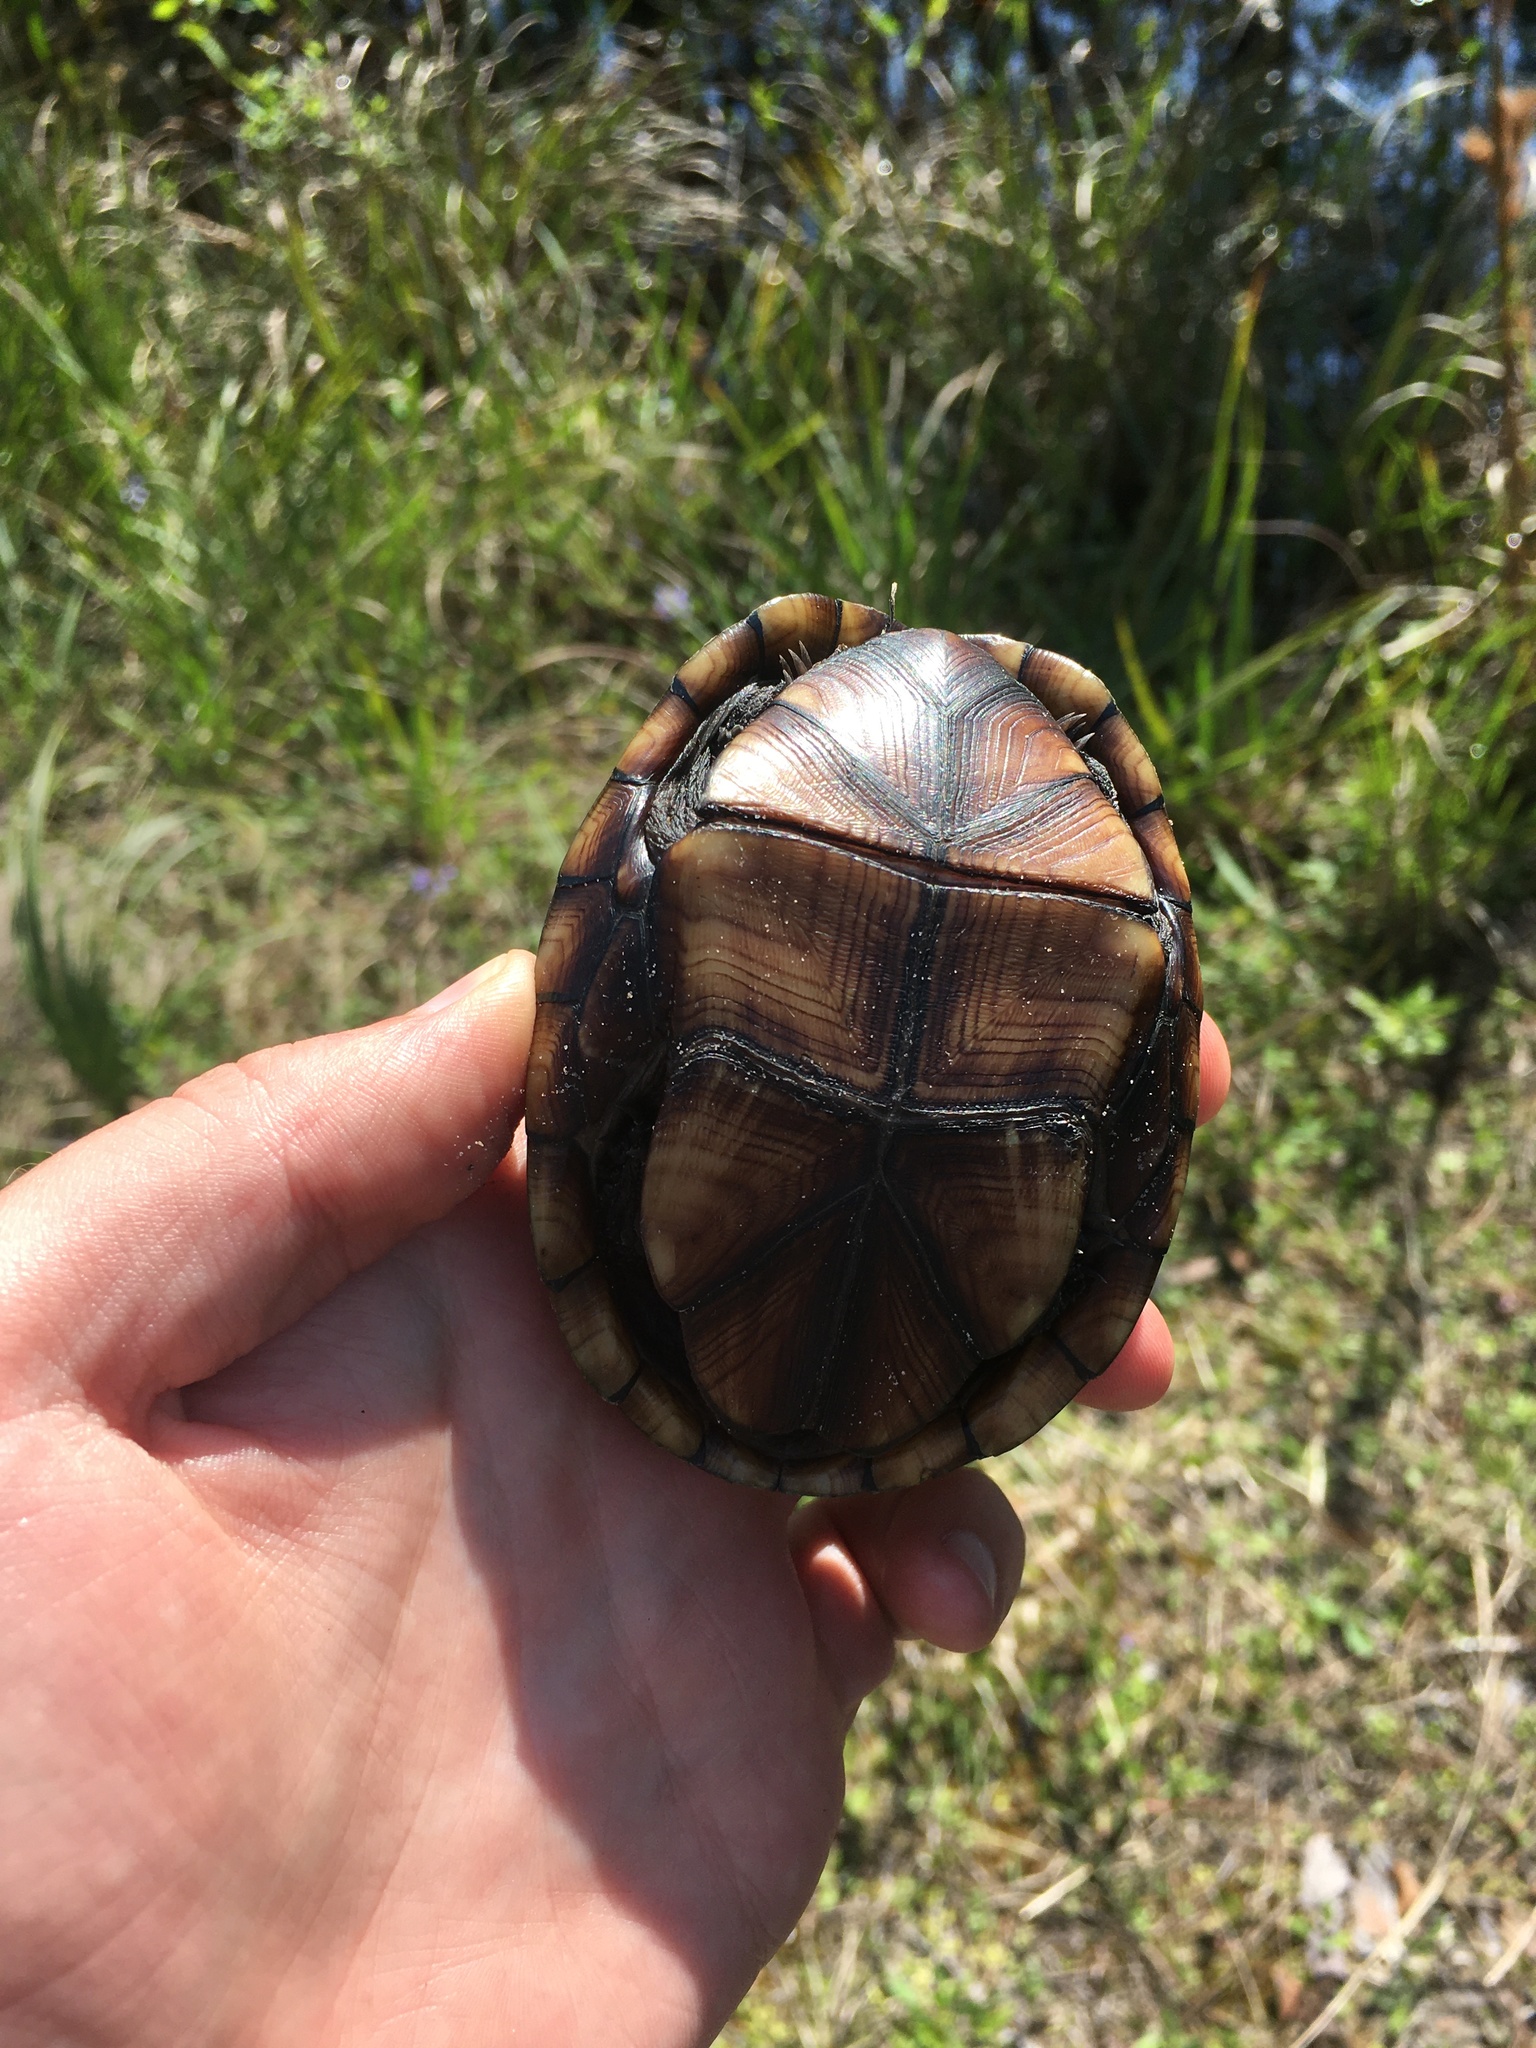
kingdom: Animalia
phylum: Chordata
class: Testudines
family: Kinosternidae
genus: Kinosternon
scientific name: Kinosternon baurii
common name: Striped mud turtle
